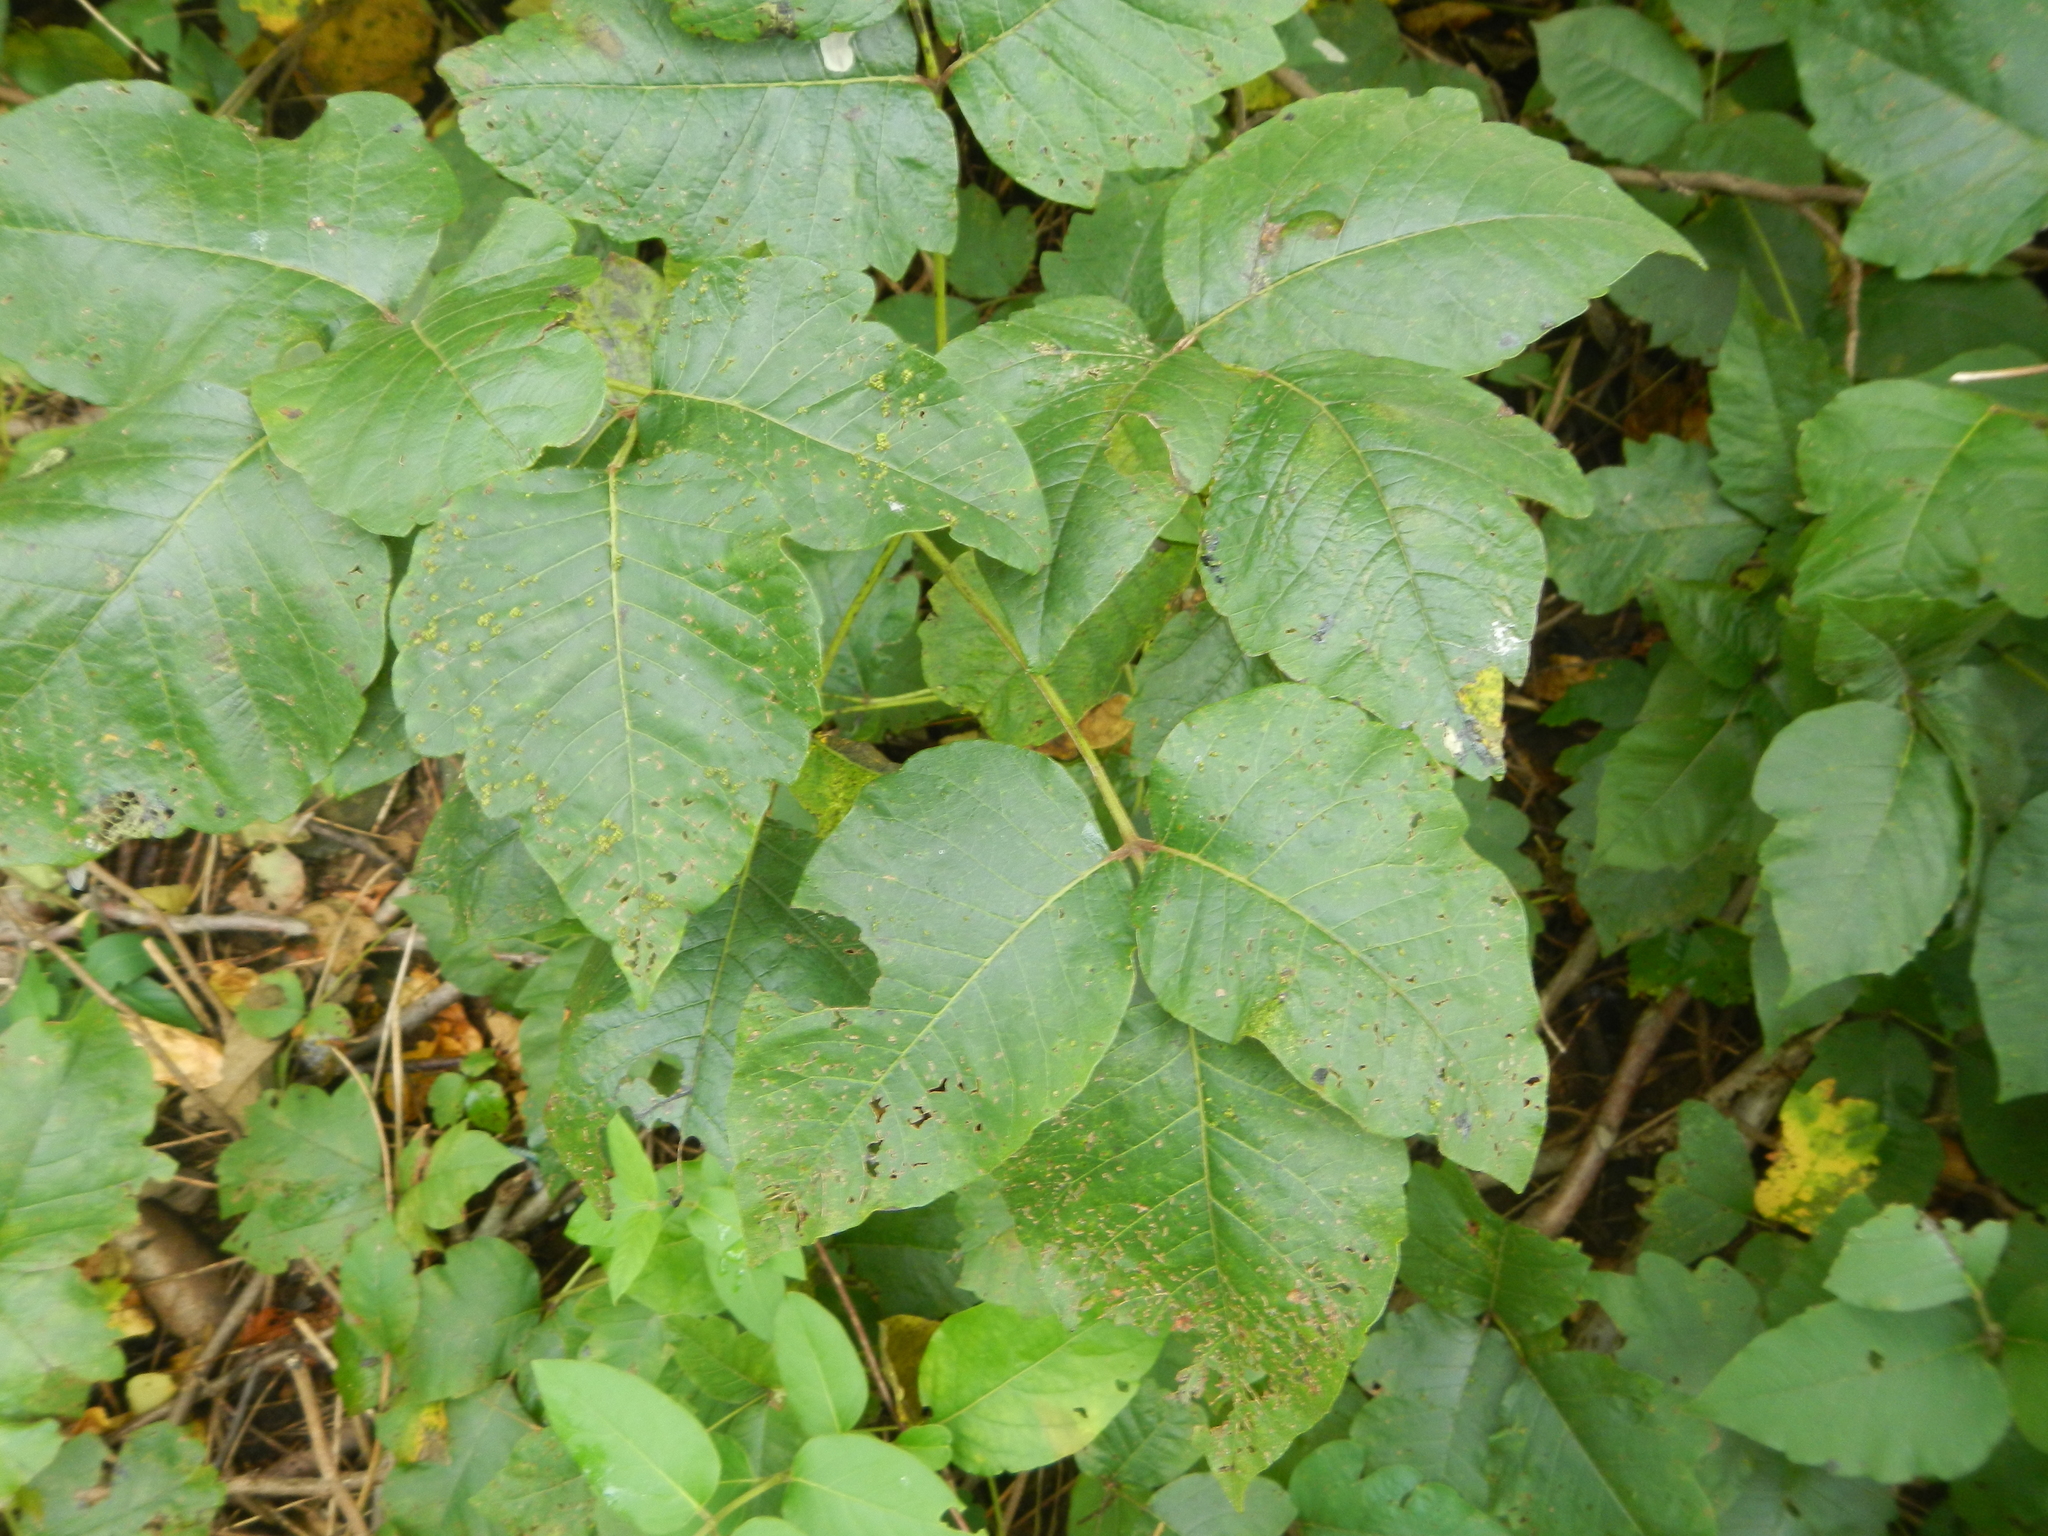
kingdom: Plantae
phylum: Tracheophyta
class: Magnoliopsida
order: Sapindales
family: Anacardiaceae
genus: Toxicodendron
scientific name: Toxicodendron radicans
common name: Poison ivy
